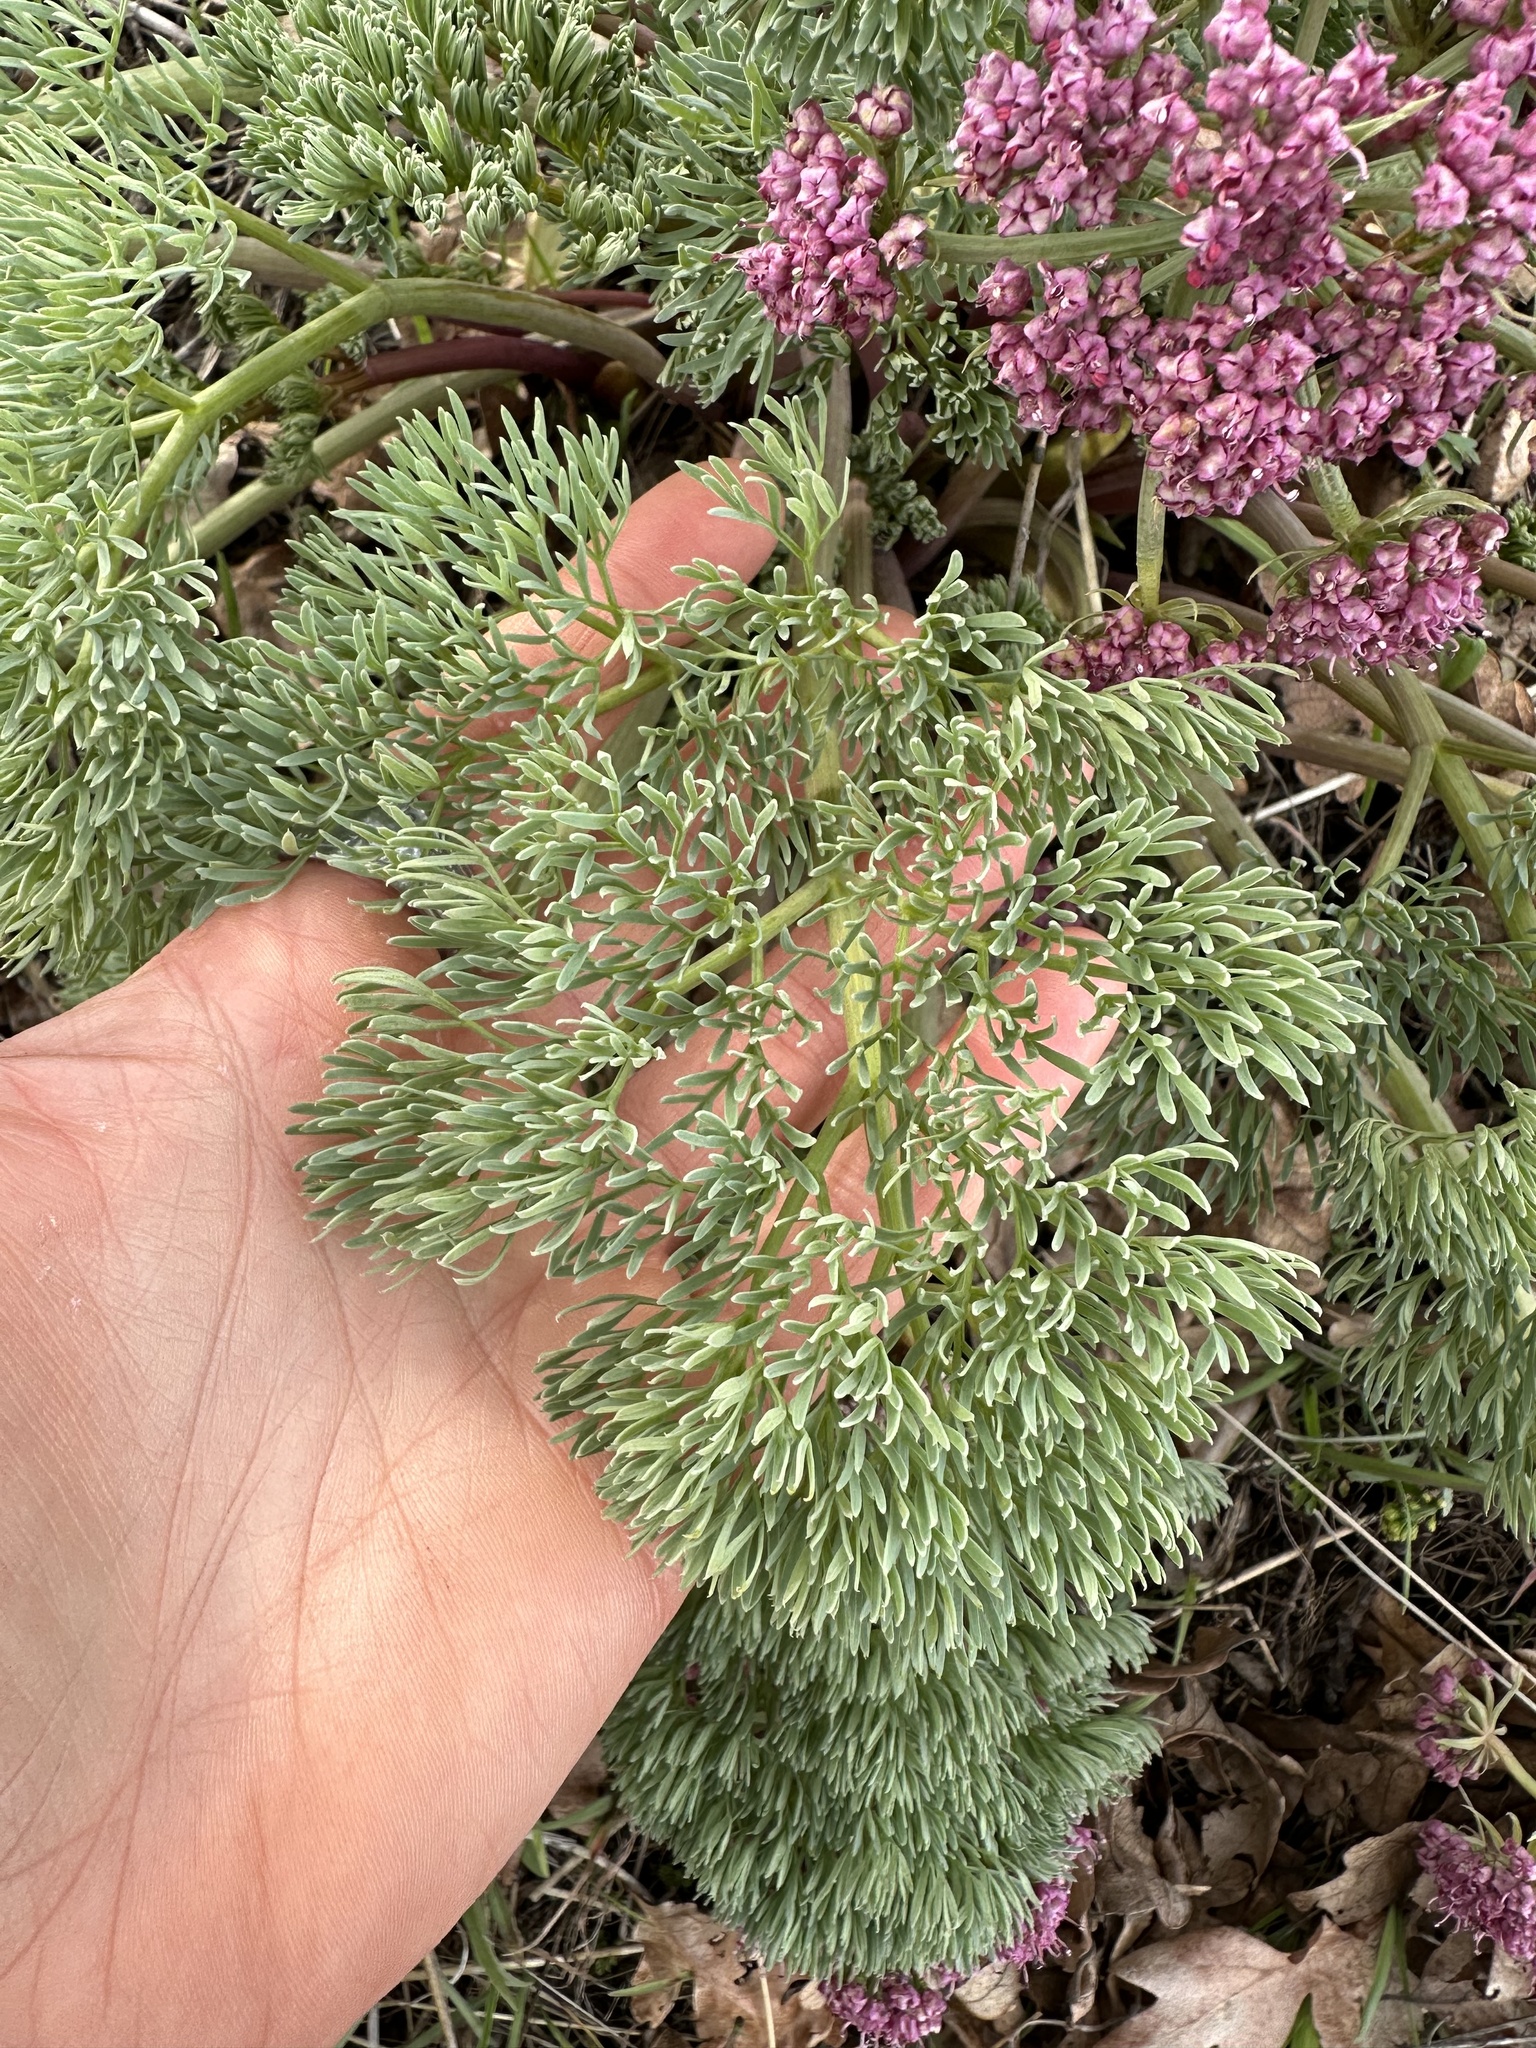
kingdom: Plantae
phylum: Tracheophyta
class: Magnoliopsida
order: Apiales
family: Apiaceae
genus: Lomatium
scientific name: Lomatium columbianum
